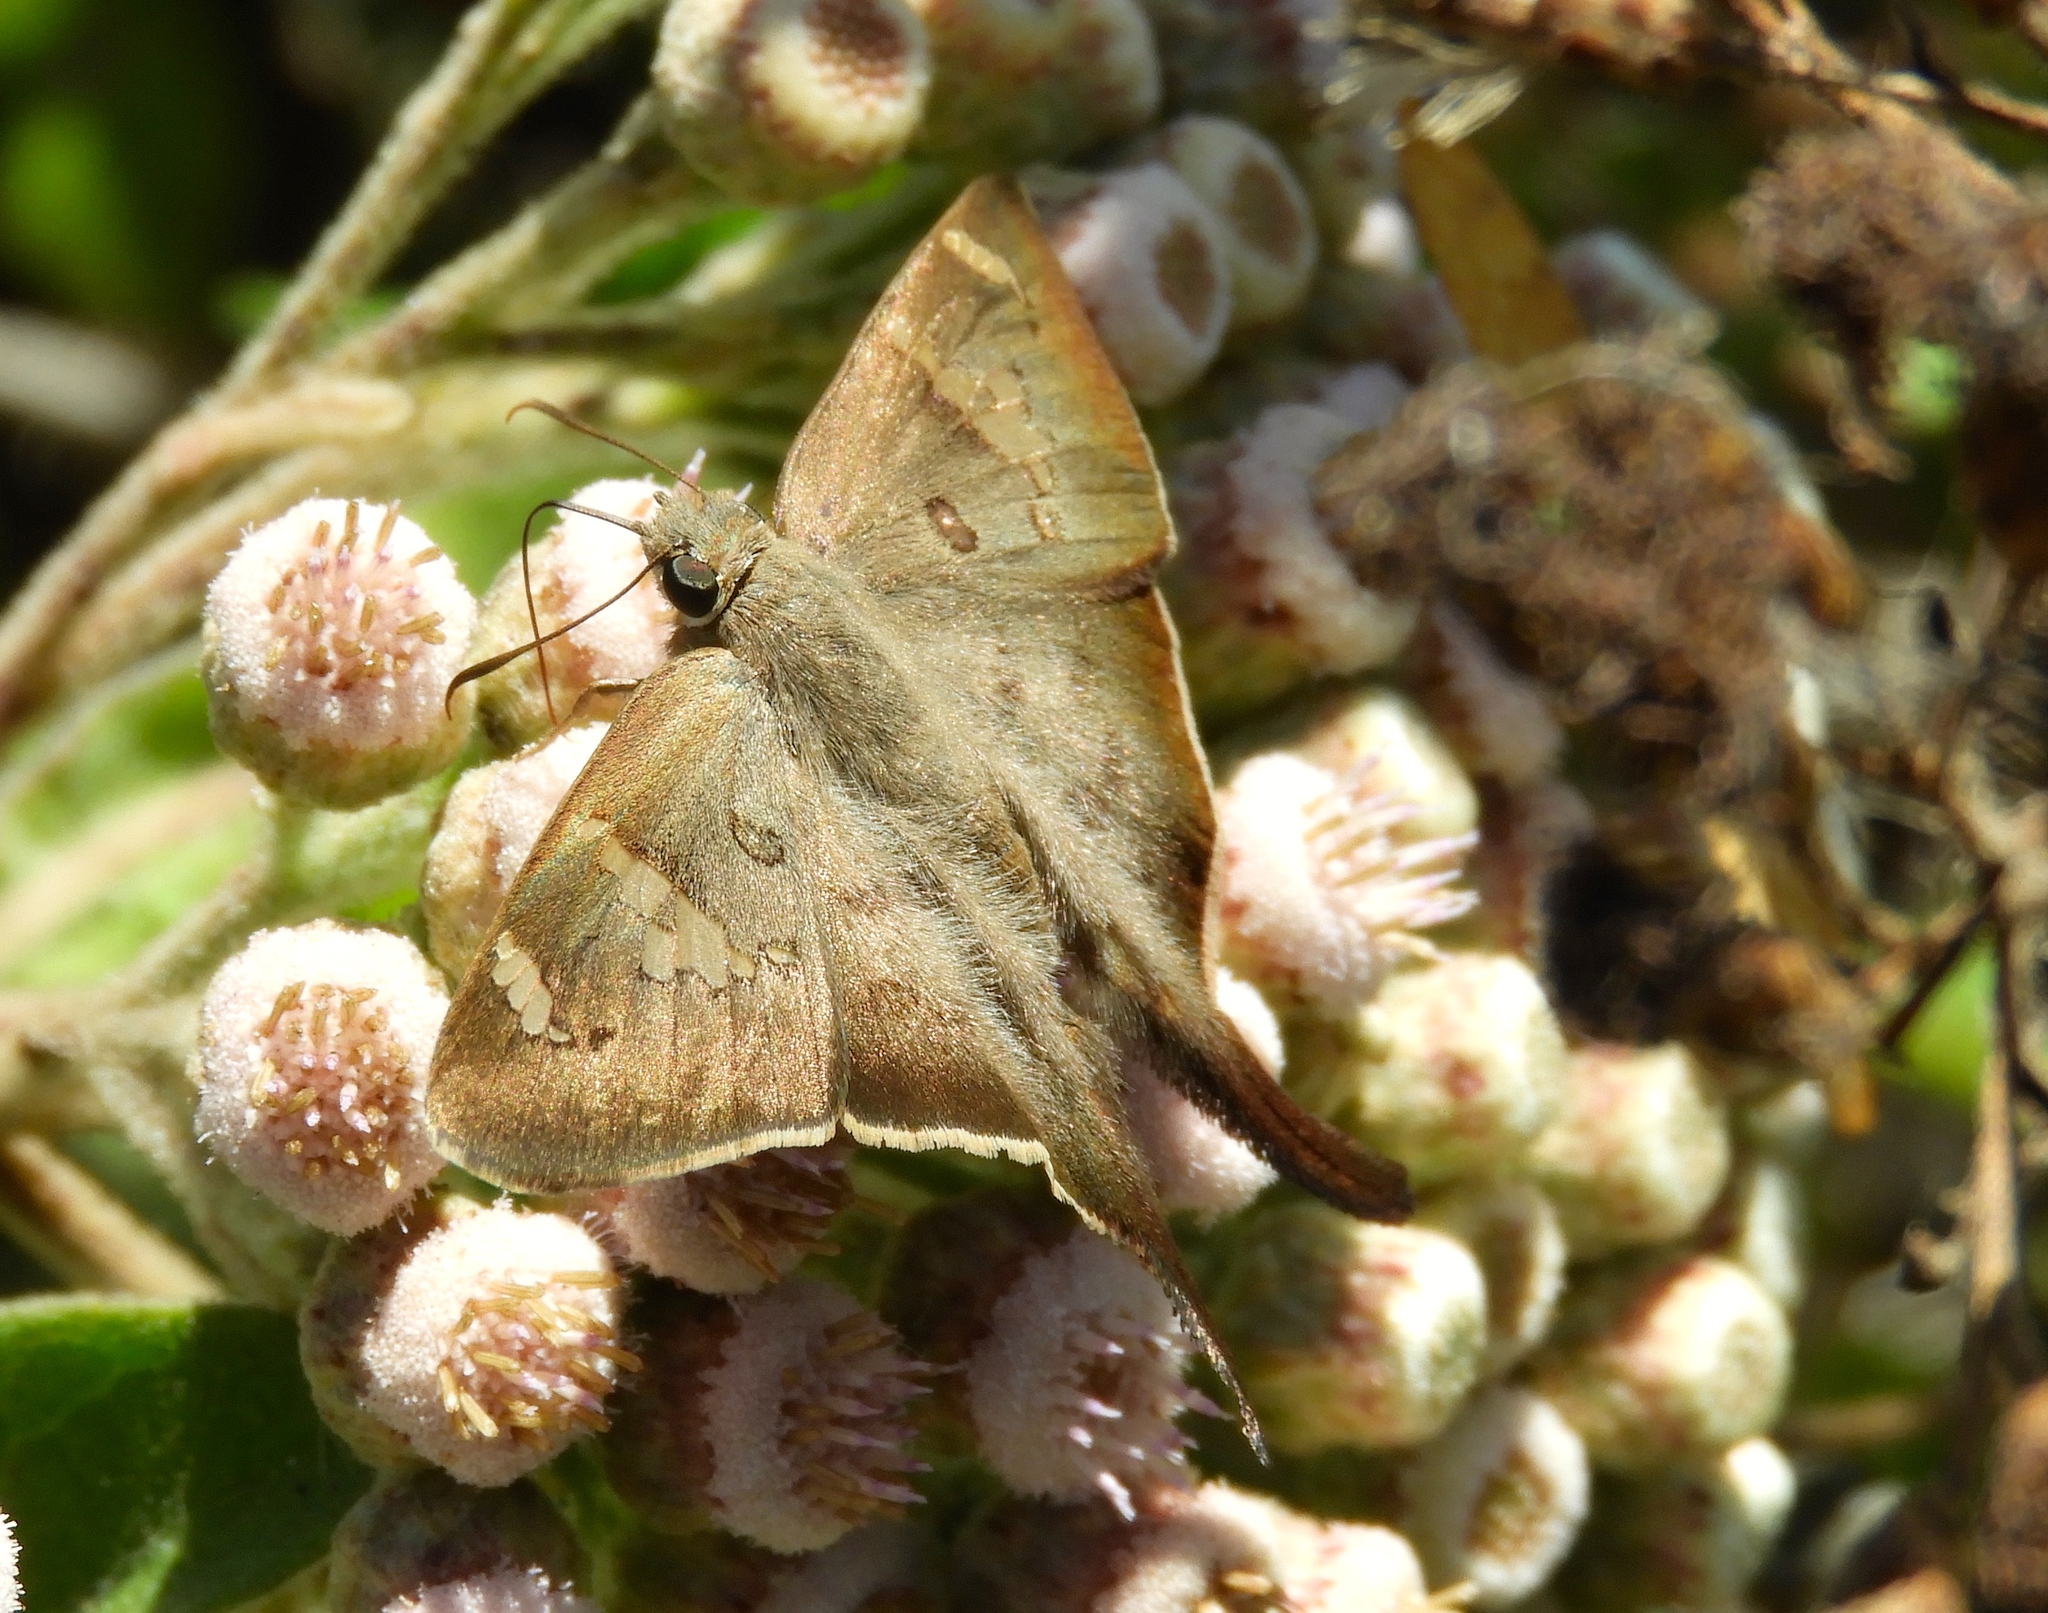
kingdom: Animalia
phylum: Arthropoda
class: Insecta
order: Lepidoptera
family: Hesperiidae
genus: Ectomis
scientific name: Ectomis
